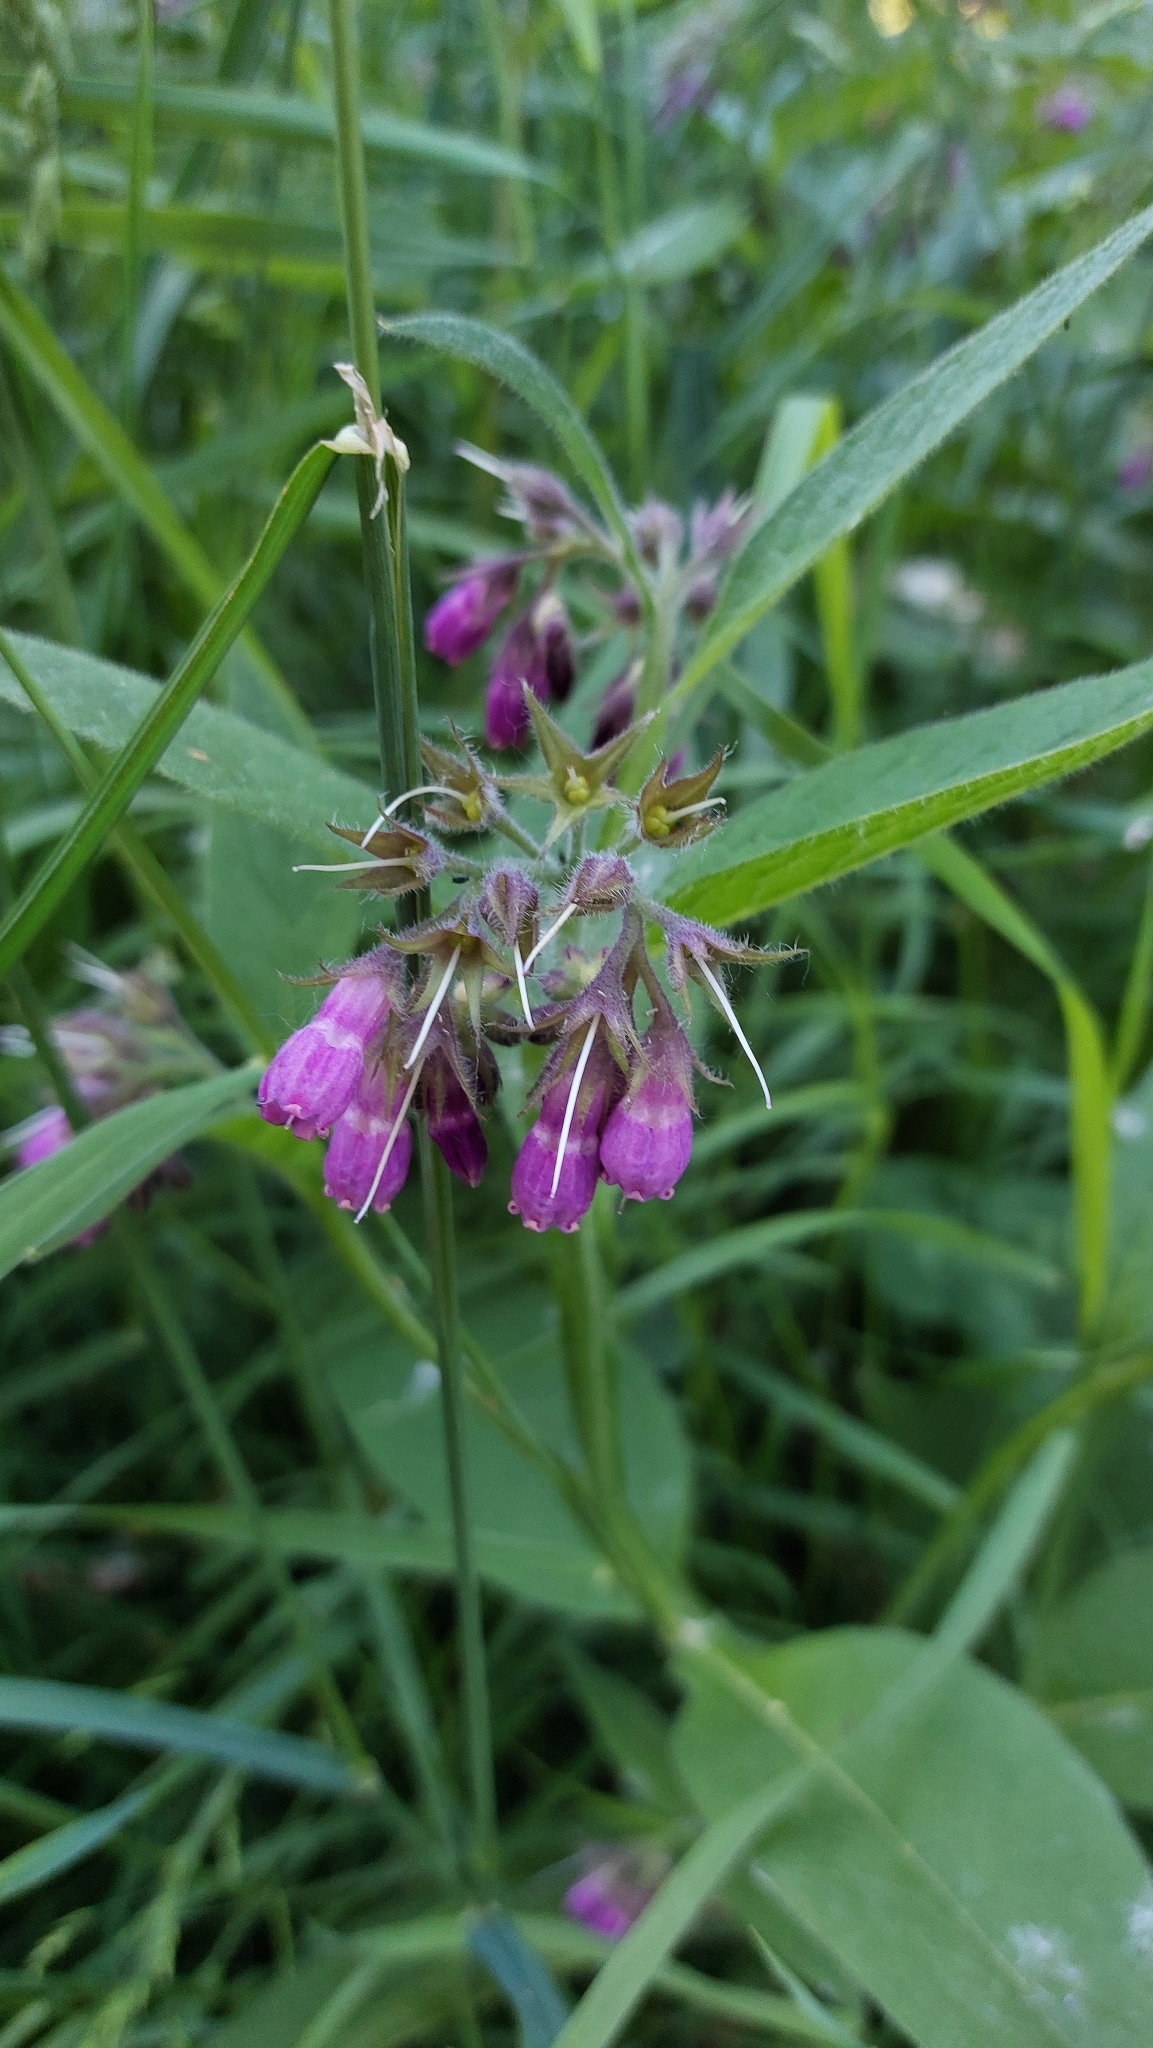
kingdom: Plantae
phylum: Tracheophyta
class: Magnoliopsida
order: Boraginales
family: Boraginaceae
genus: Symphytum
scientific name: Symphytum officinale
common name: Common comfrey
